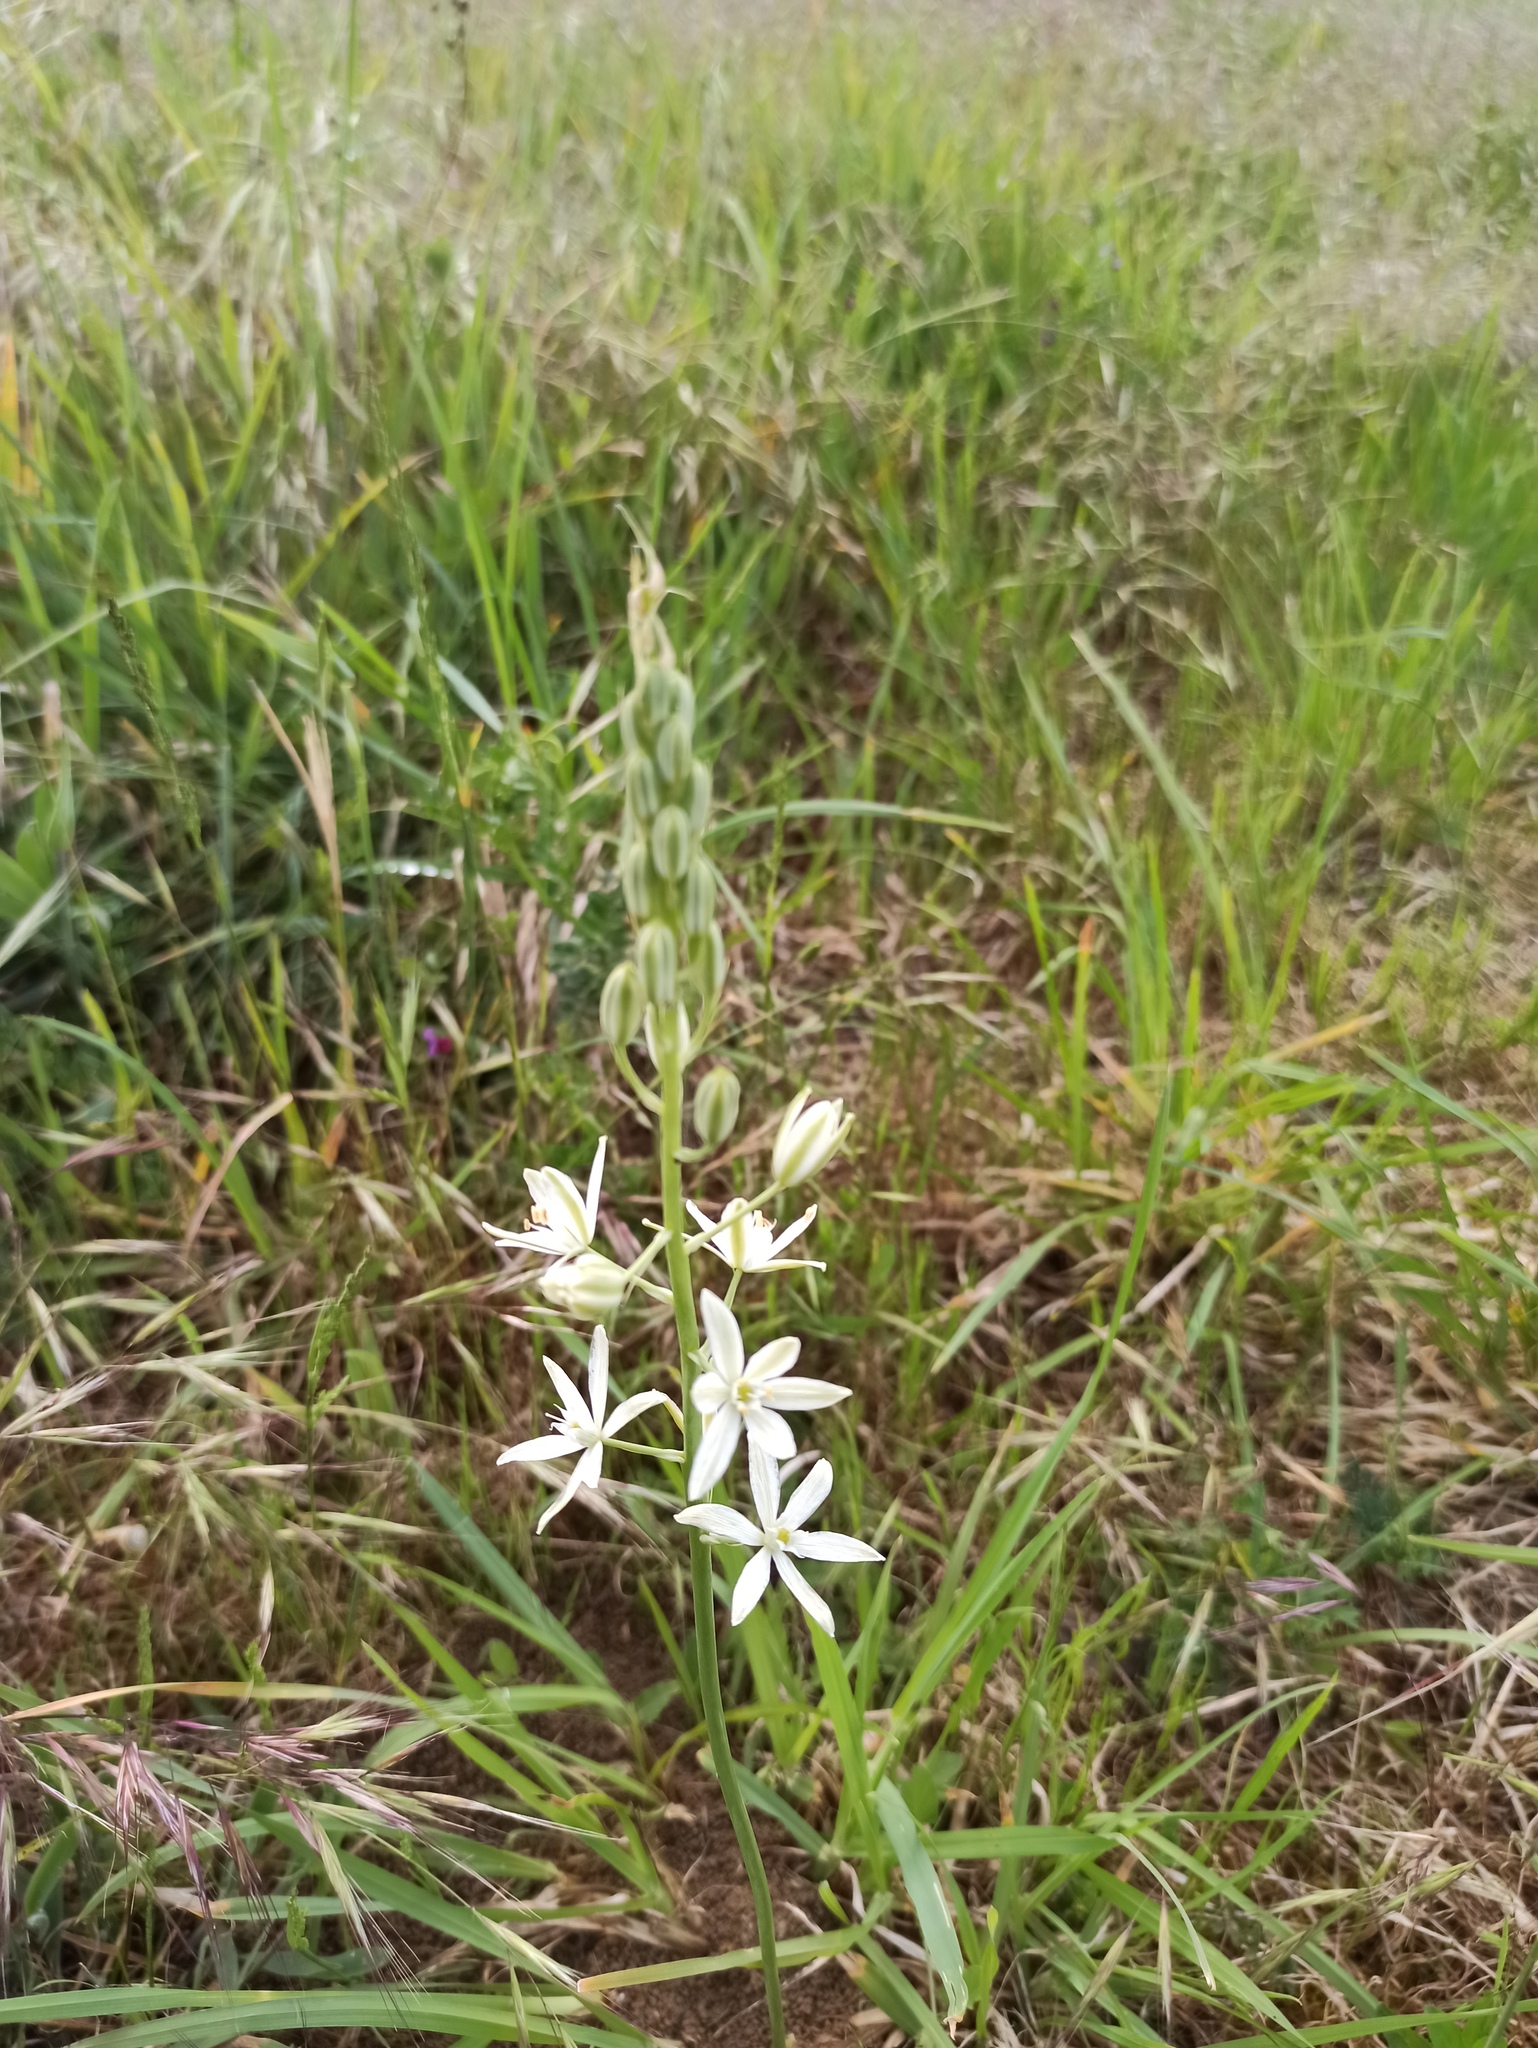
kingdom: Plantae
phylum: Tracheophyta
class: Liliopsida
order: Asparagales
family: Asparagaceae
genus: Ornithogalum
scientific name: Ornithogalum narbonense
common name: Bath-asparagus
